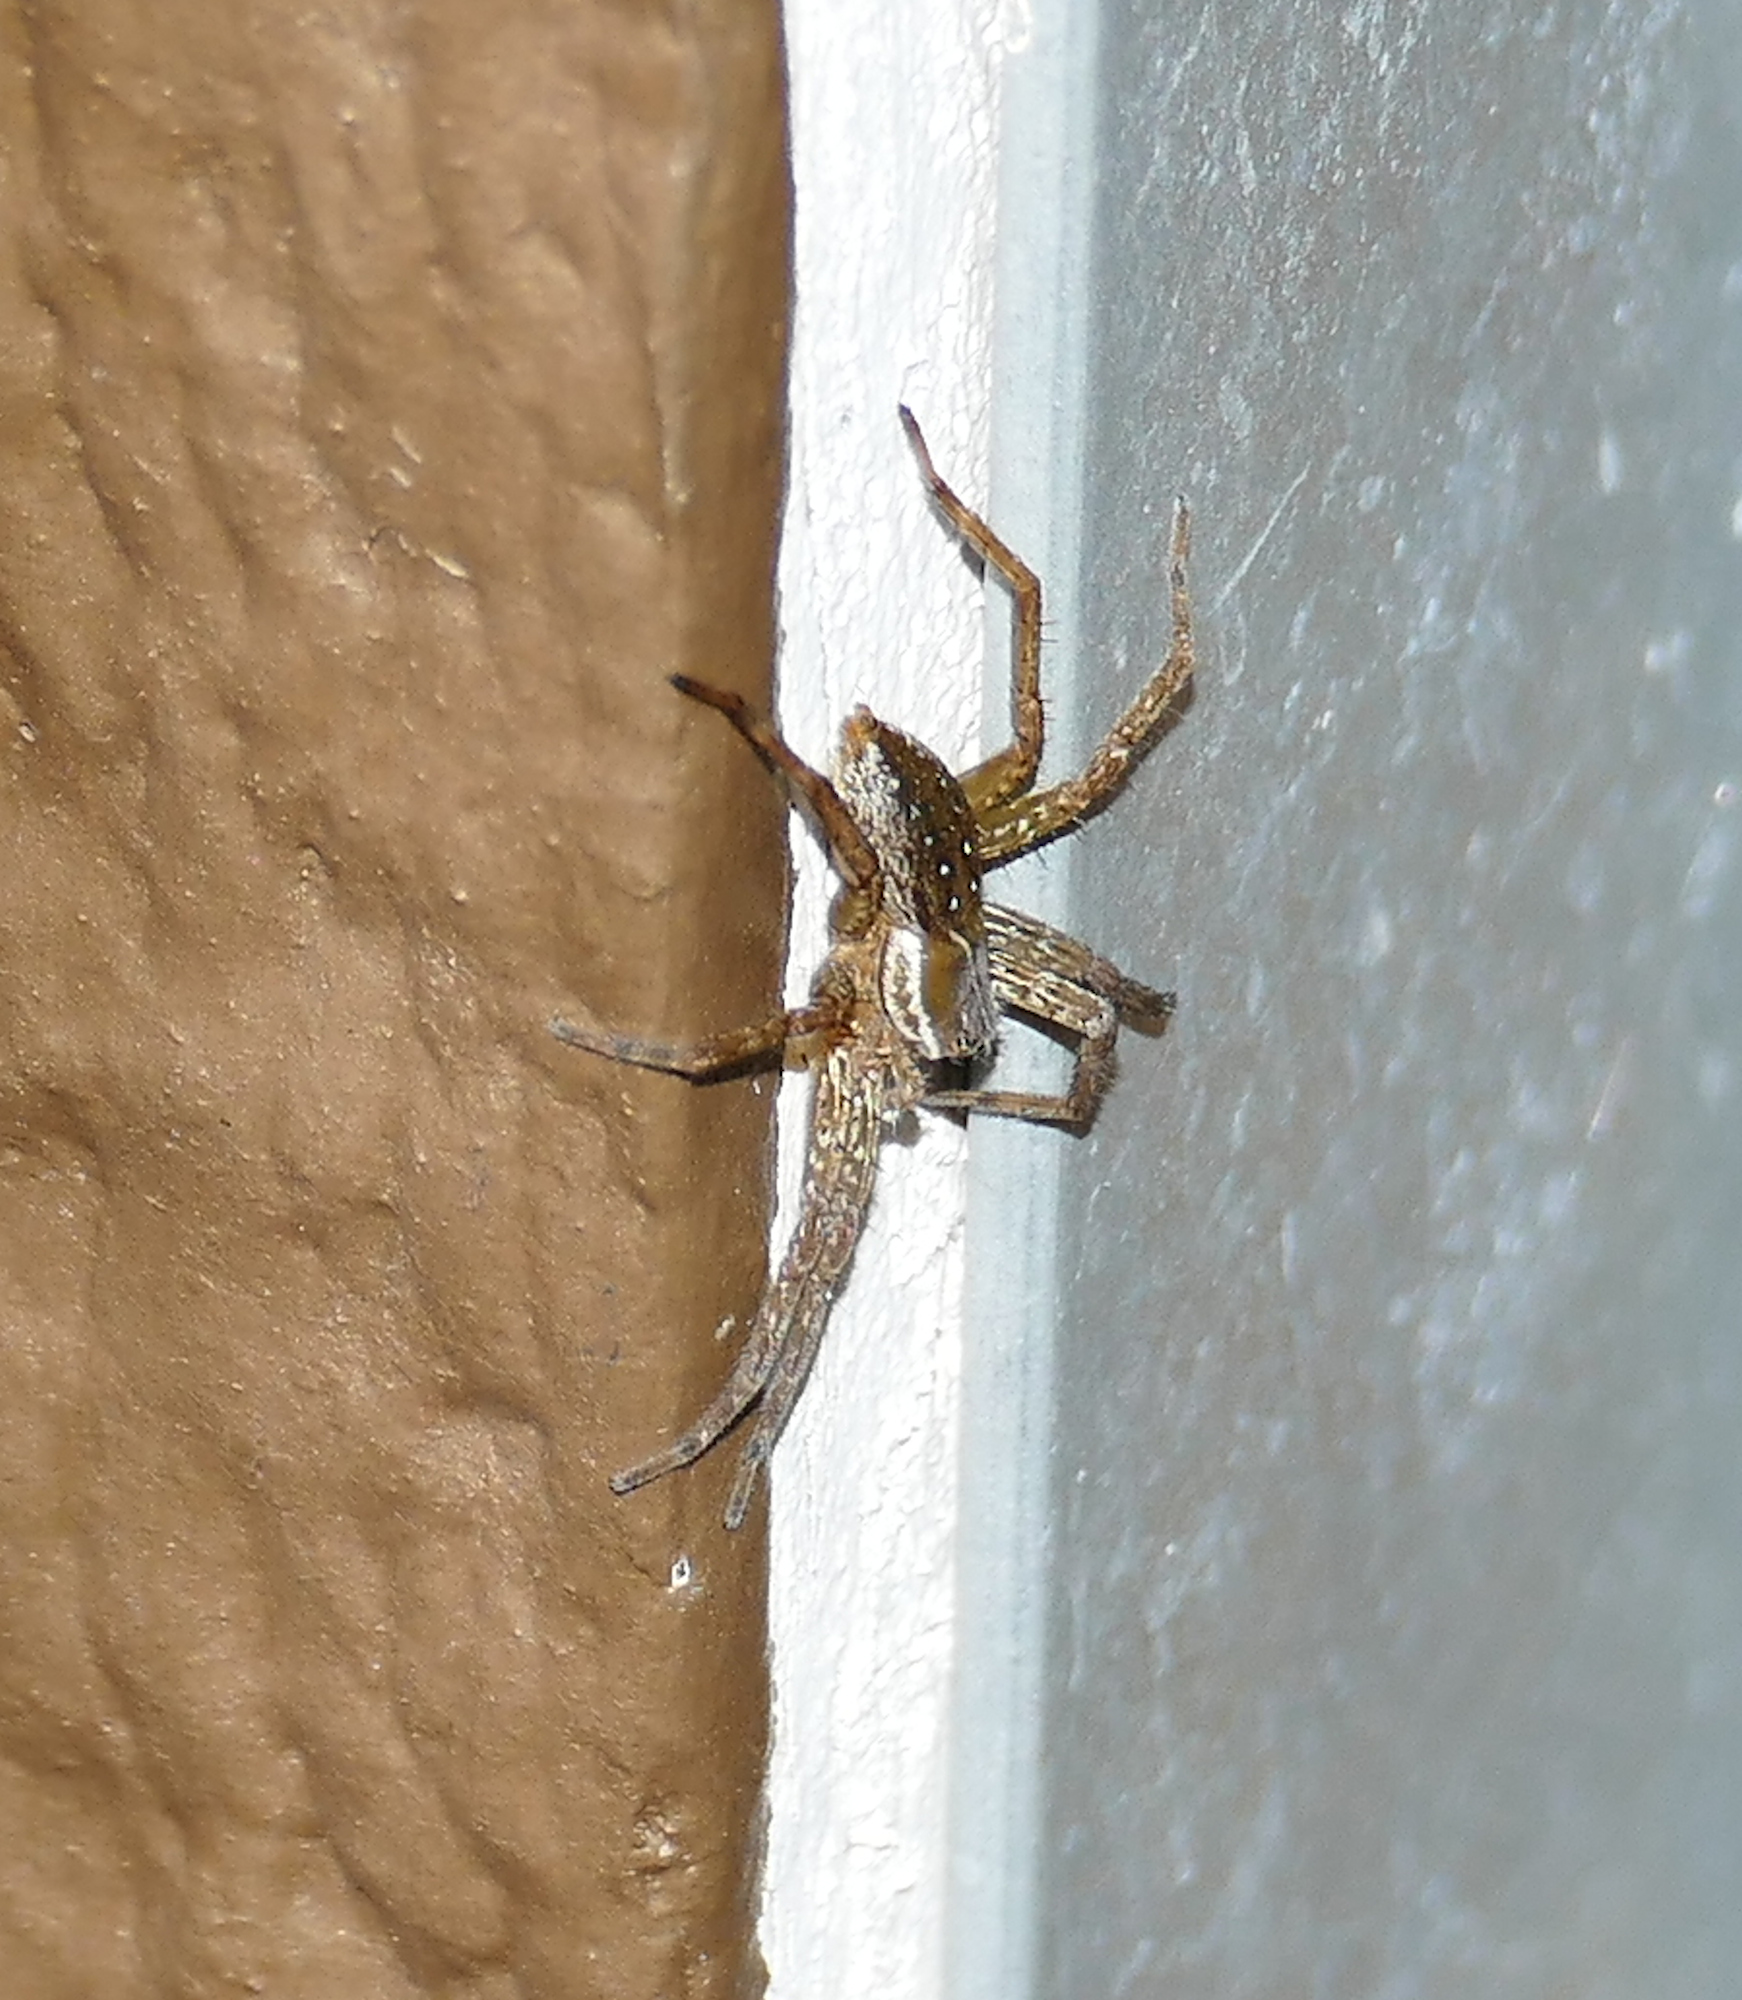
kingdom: Animalia
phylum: Arthropoda
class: Arachnida
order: Araneae
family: Pisauridae
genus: Dolomedes
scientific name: Dolomedes triton
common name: Six-spotted fishing spider
